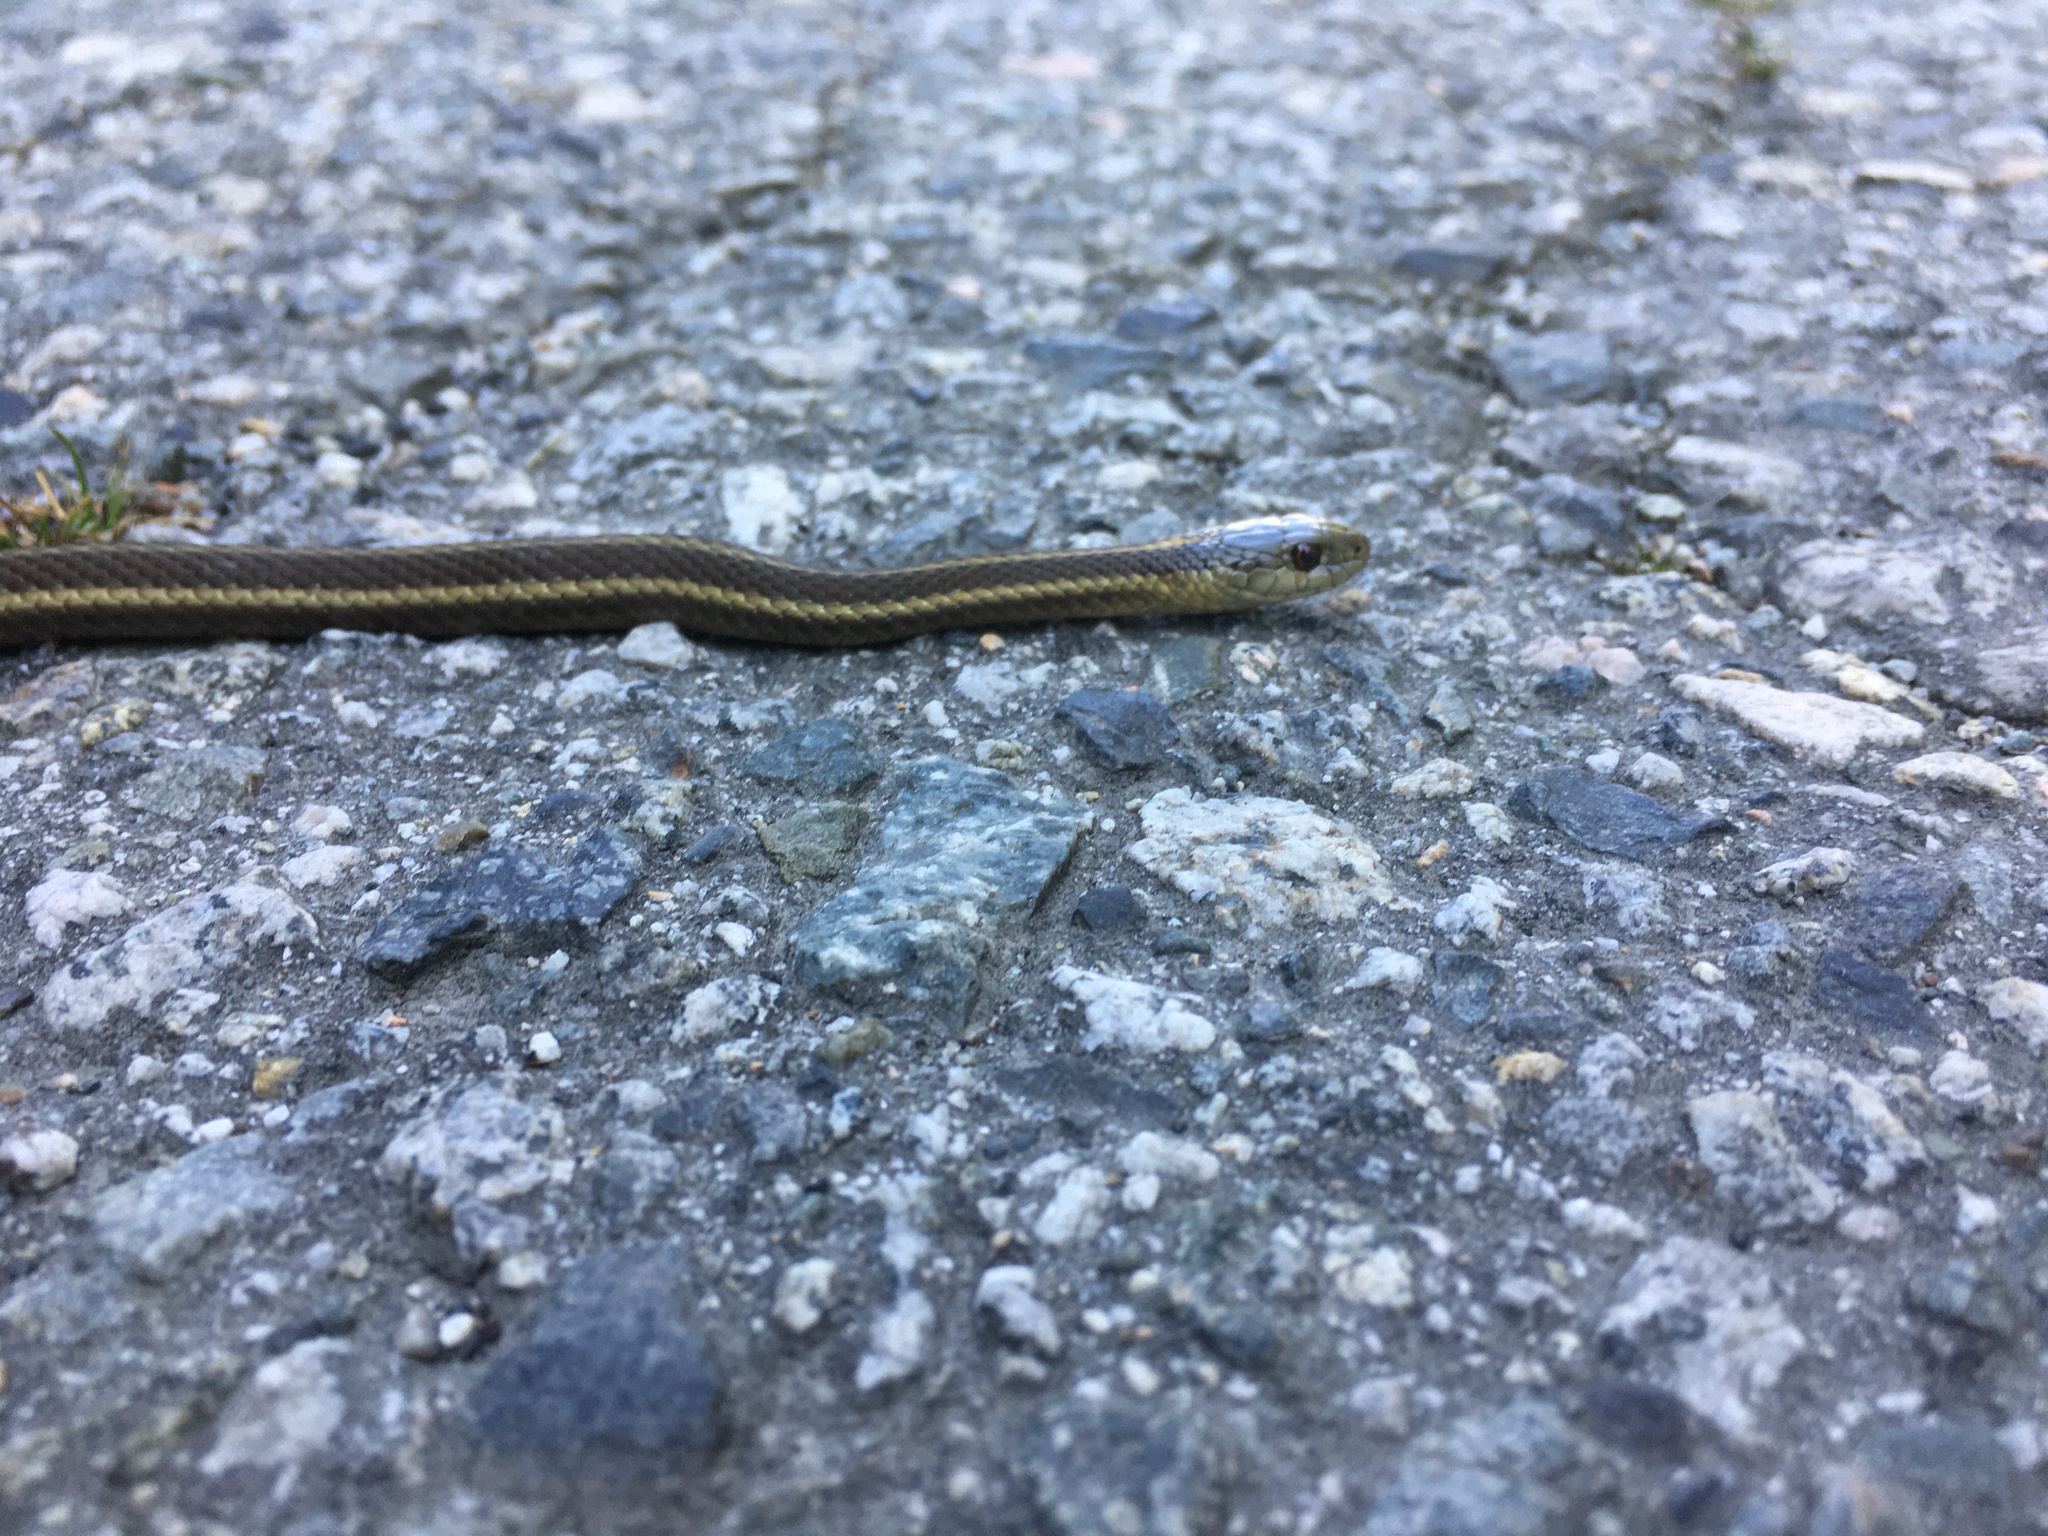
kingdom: Animalia
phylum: Chordata
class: Squamata
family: Colubridae
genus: Thamnophis
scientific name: Thamnophis ordinoides
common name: Northwestern garter snake
